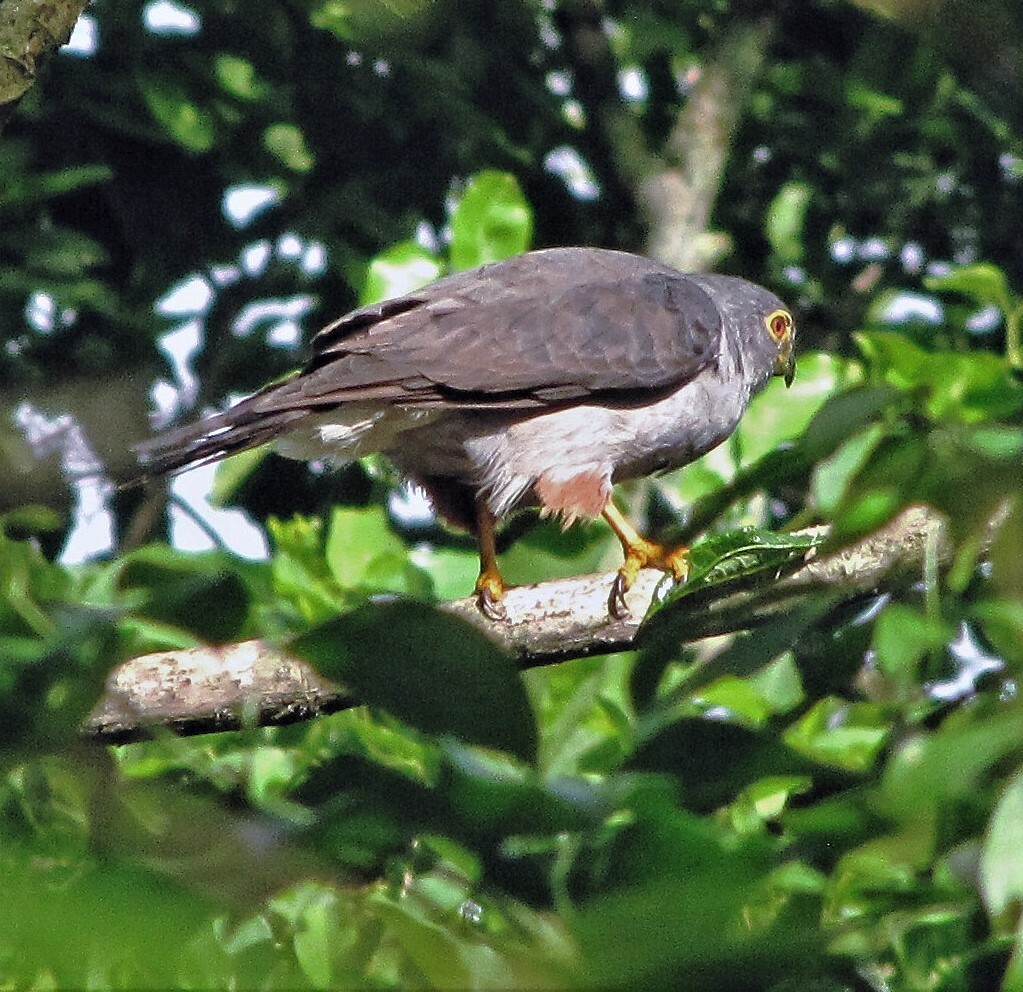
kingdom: Animalia
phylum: Chordata
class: Aves
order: Accipitriformes
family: Accipitridae
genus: Harpagus
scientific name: Harpagus diodon
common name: Rufous-thighed kite
